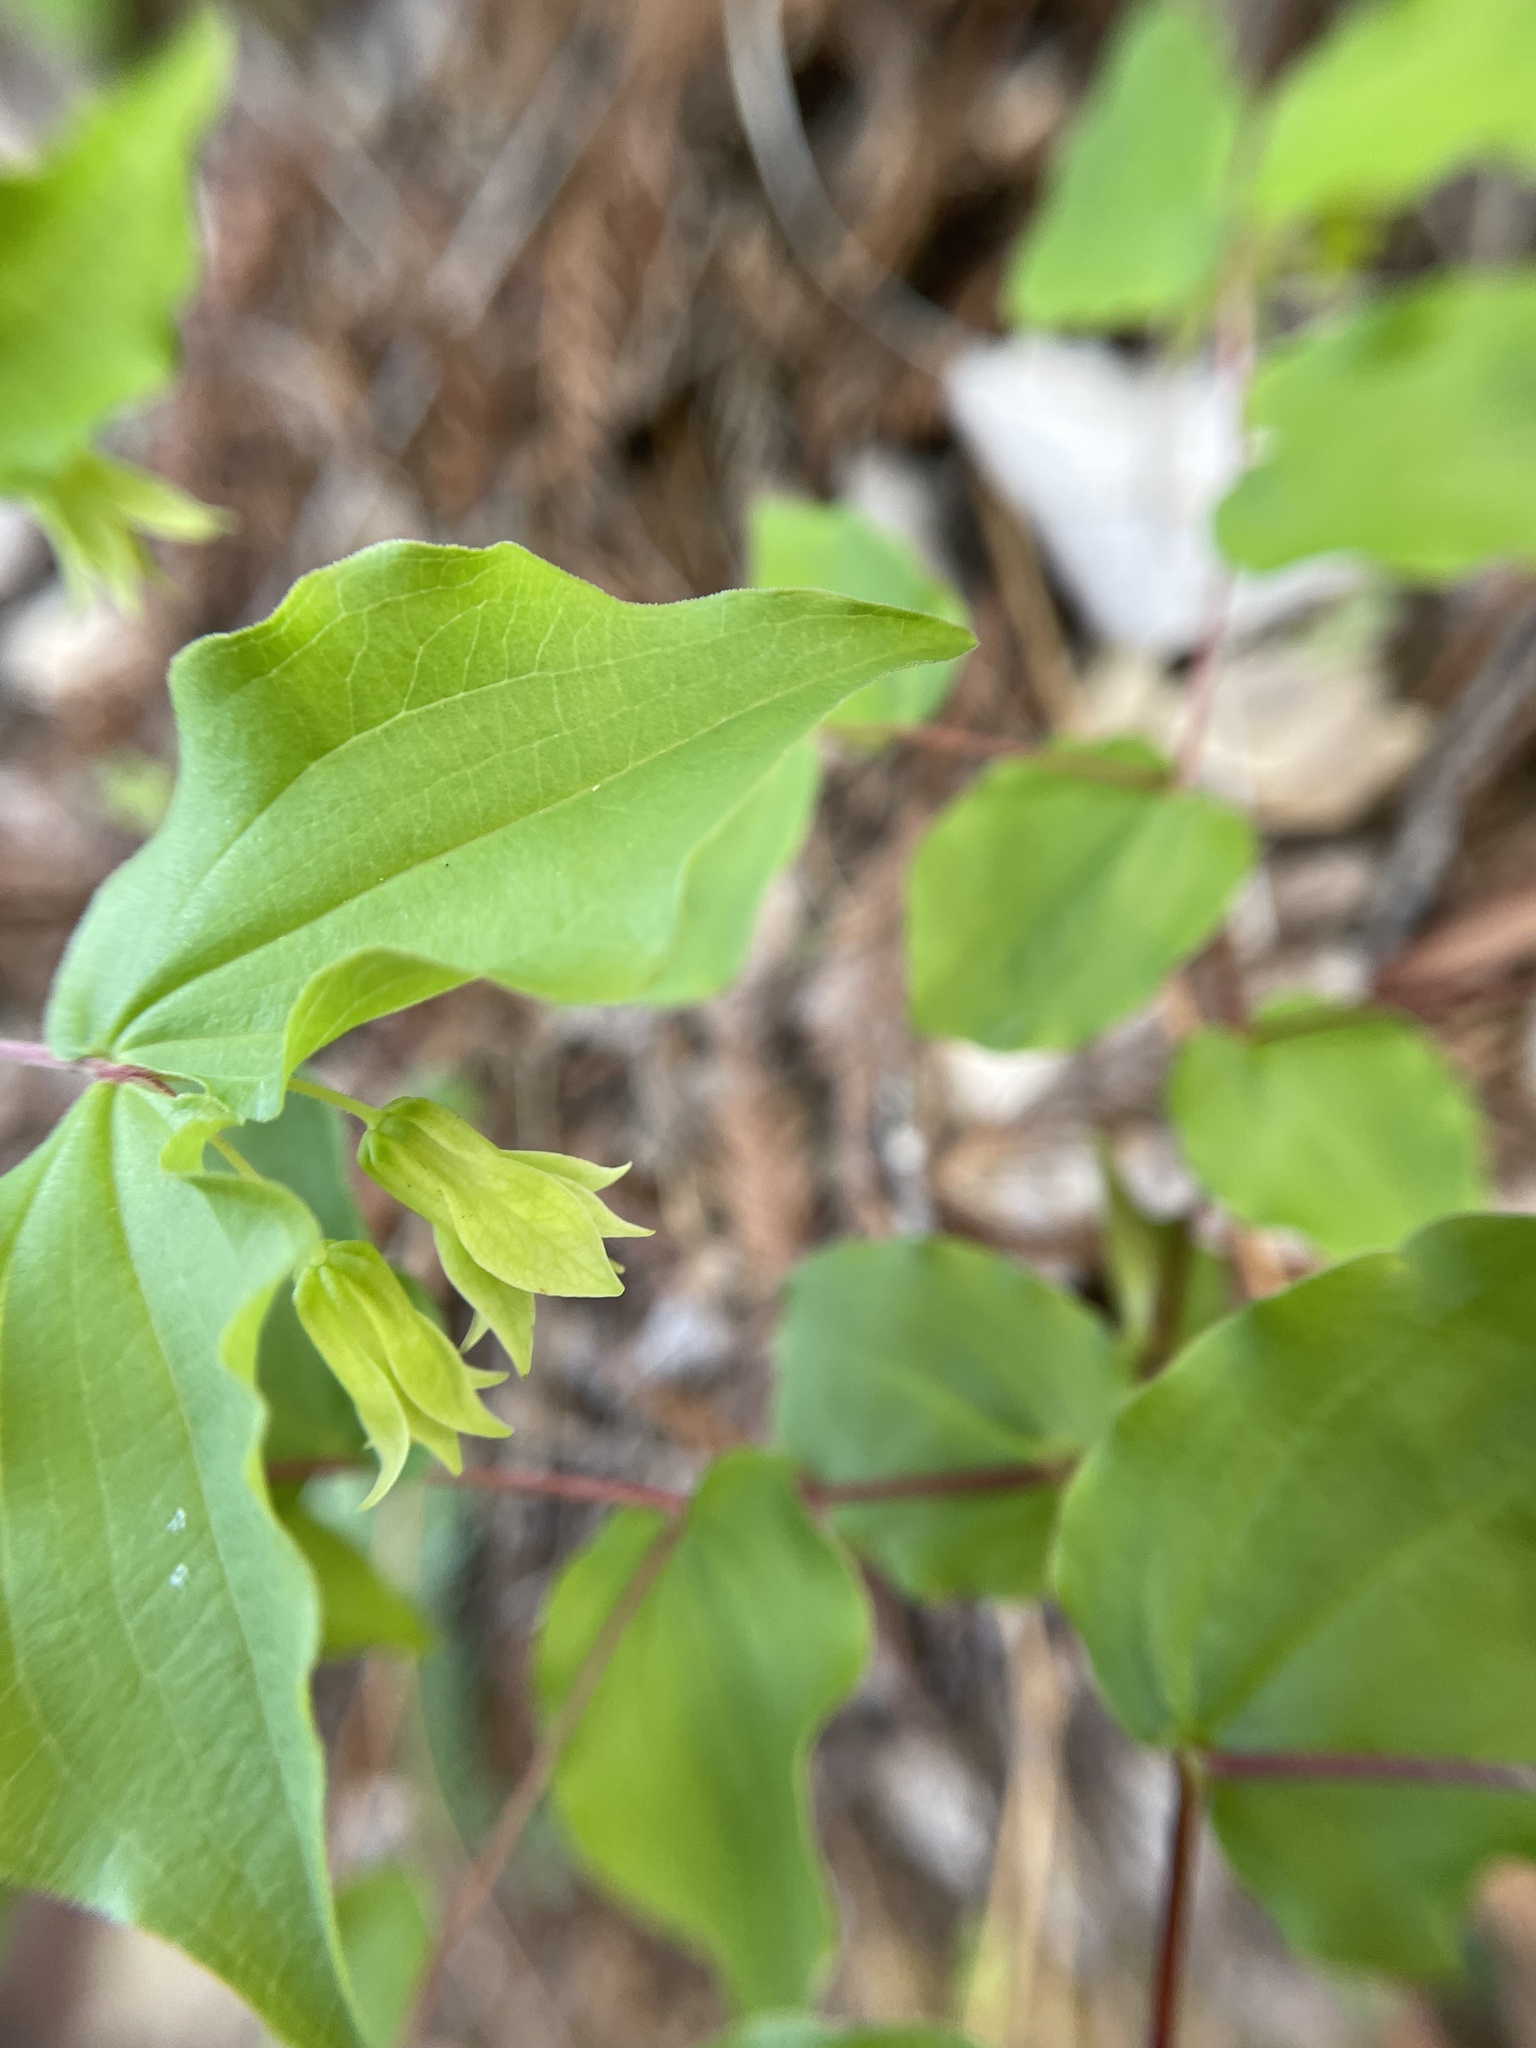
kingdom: Plantae
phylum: Tracheophyta
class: Liliopsida
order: Liliales
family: Liliaceae
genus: Prosartes
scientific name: Prosartes hookeri
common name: Fairy-bells
